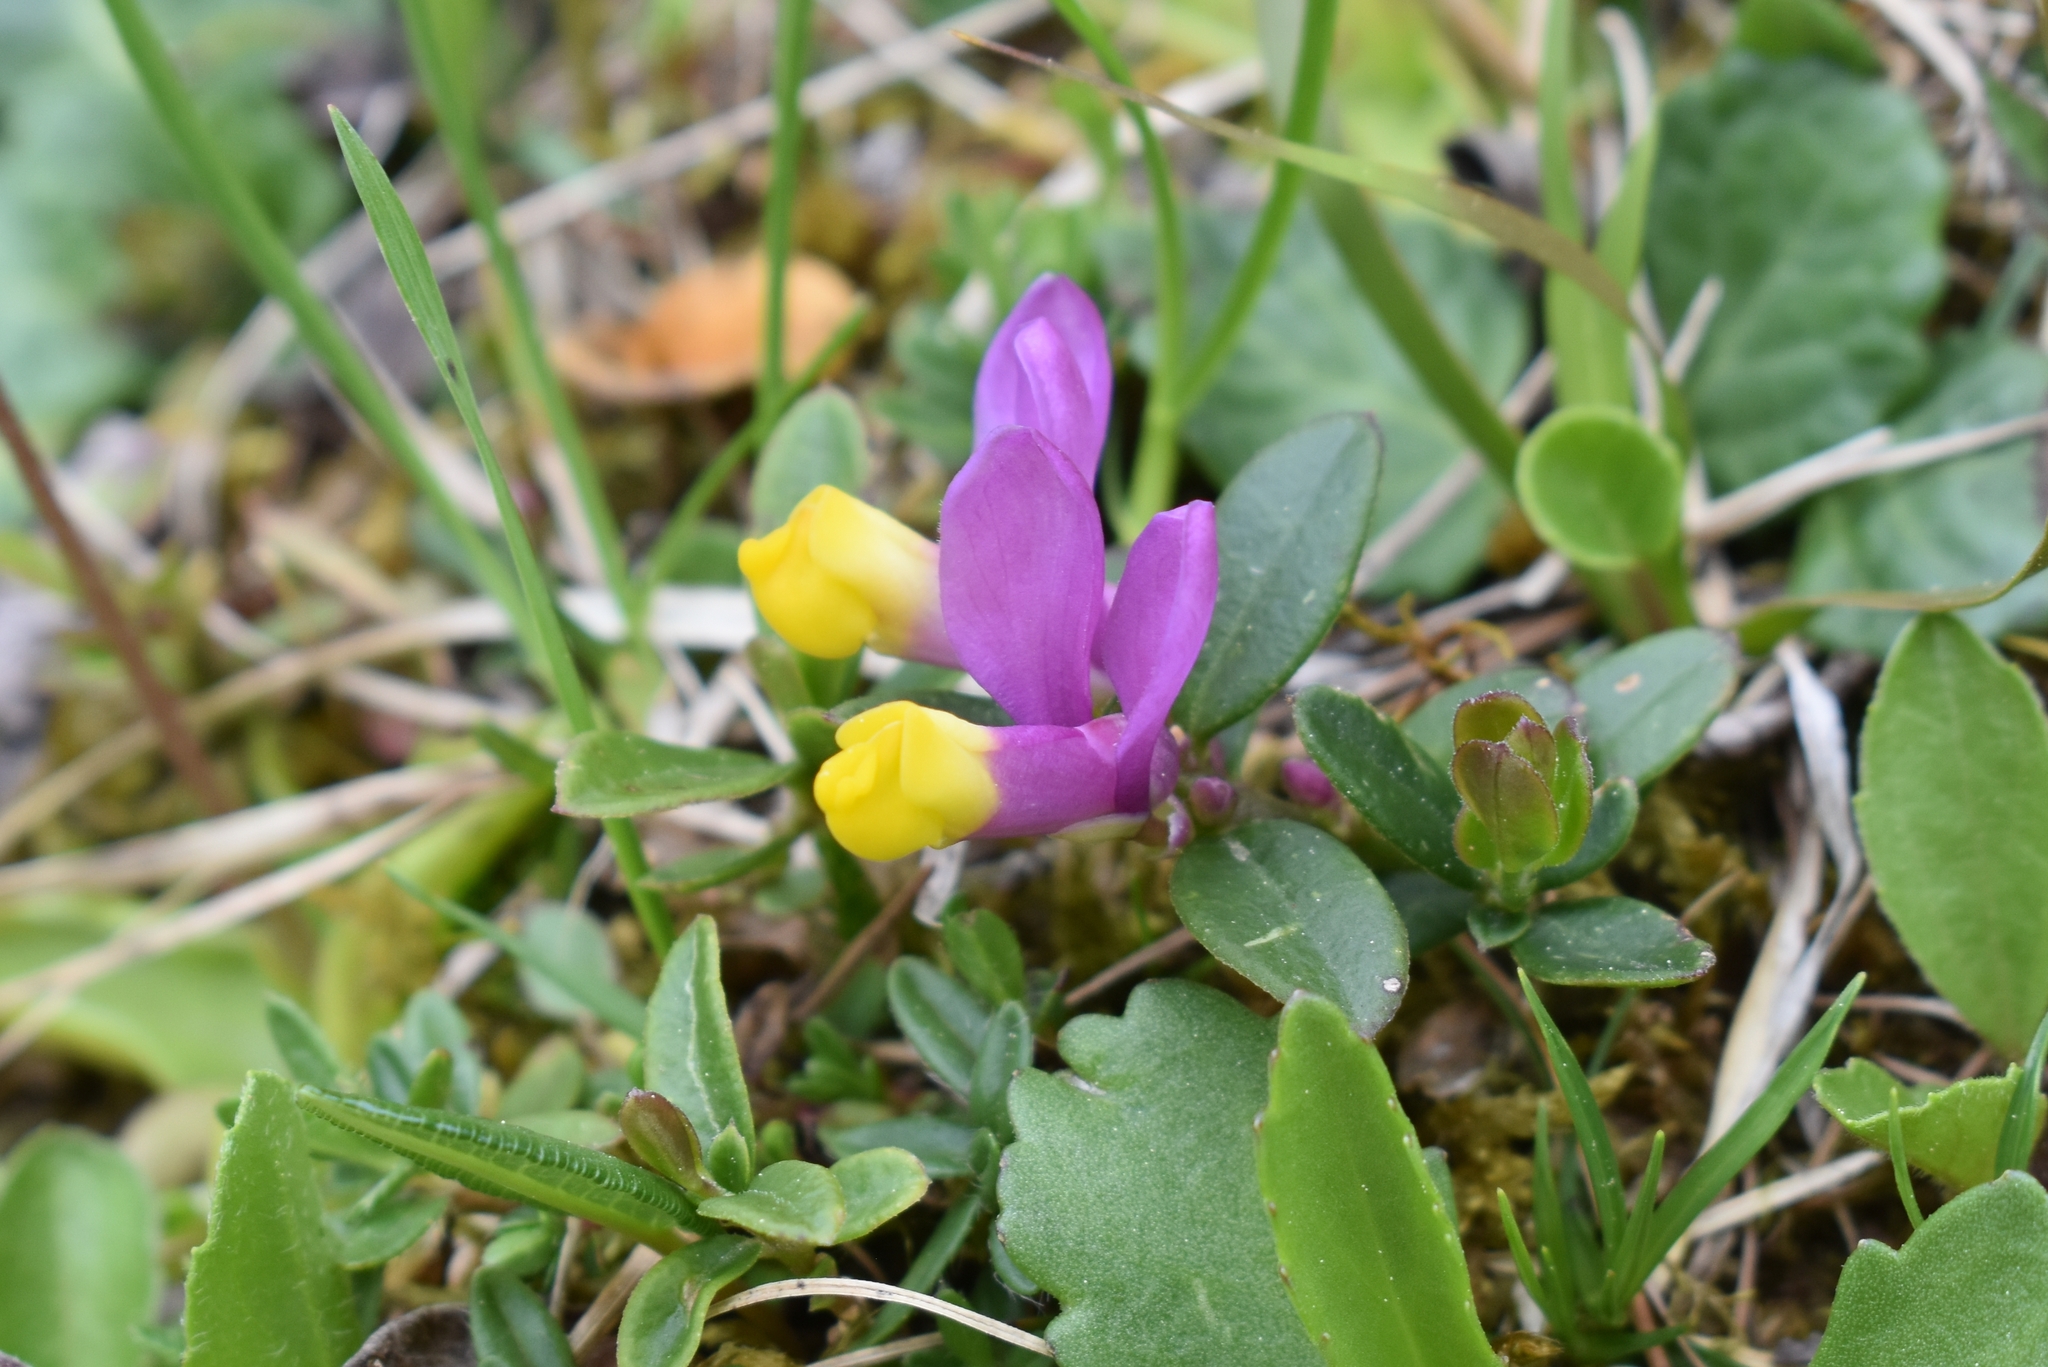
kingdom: Plantae
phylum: Tracheophyta
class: Magnoliopsida
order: Fabales
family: Polygalaceae
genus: Polygaloides
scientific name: Polygaloides chamaebuxus
